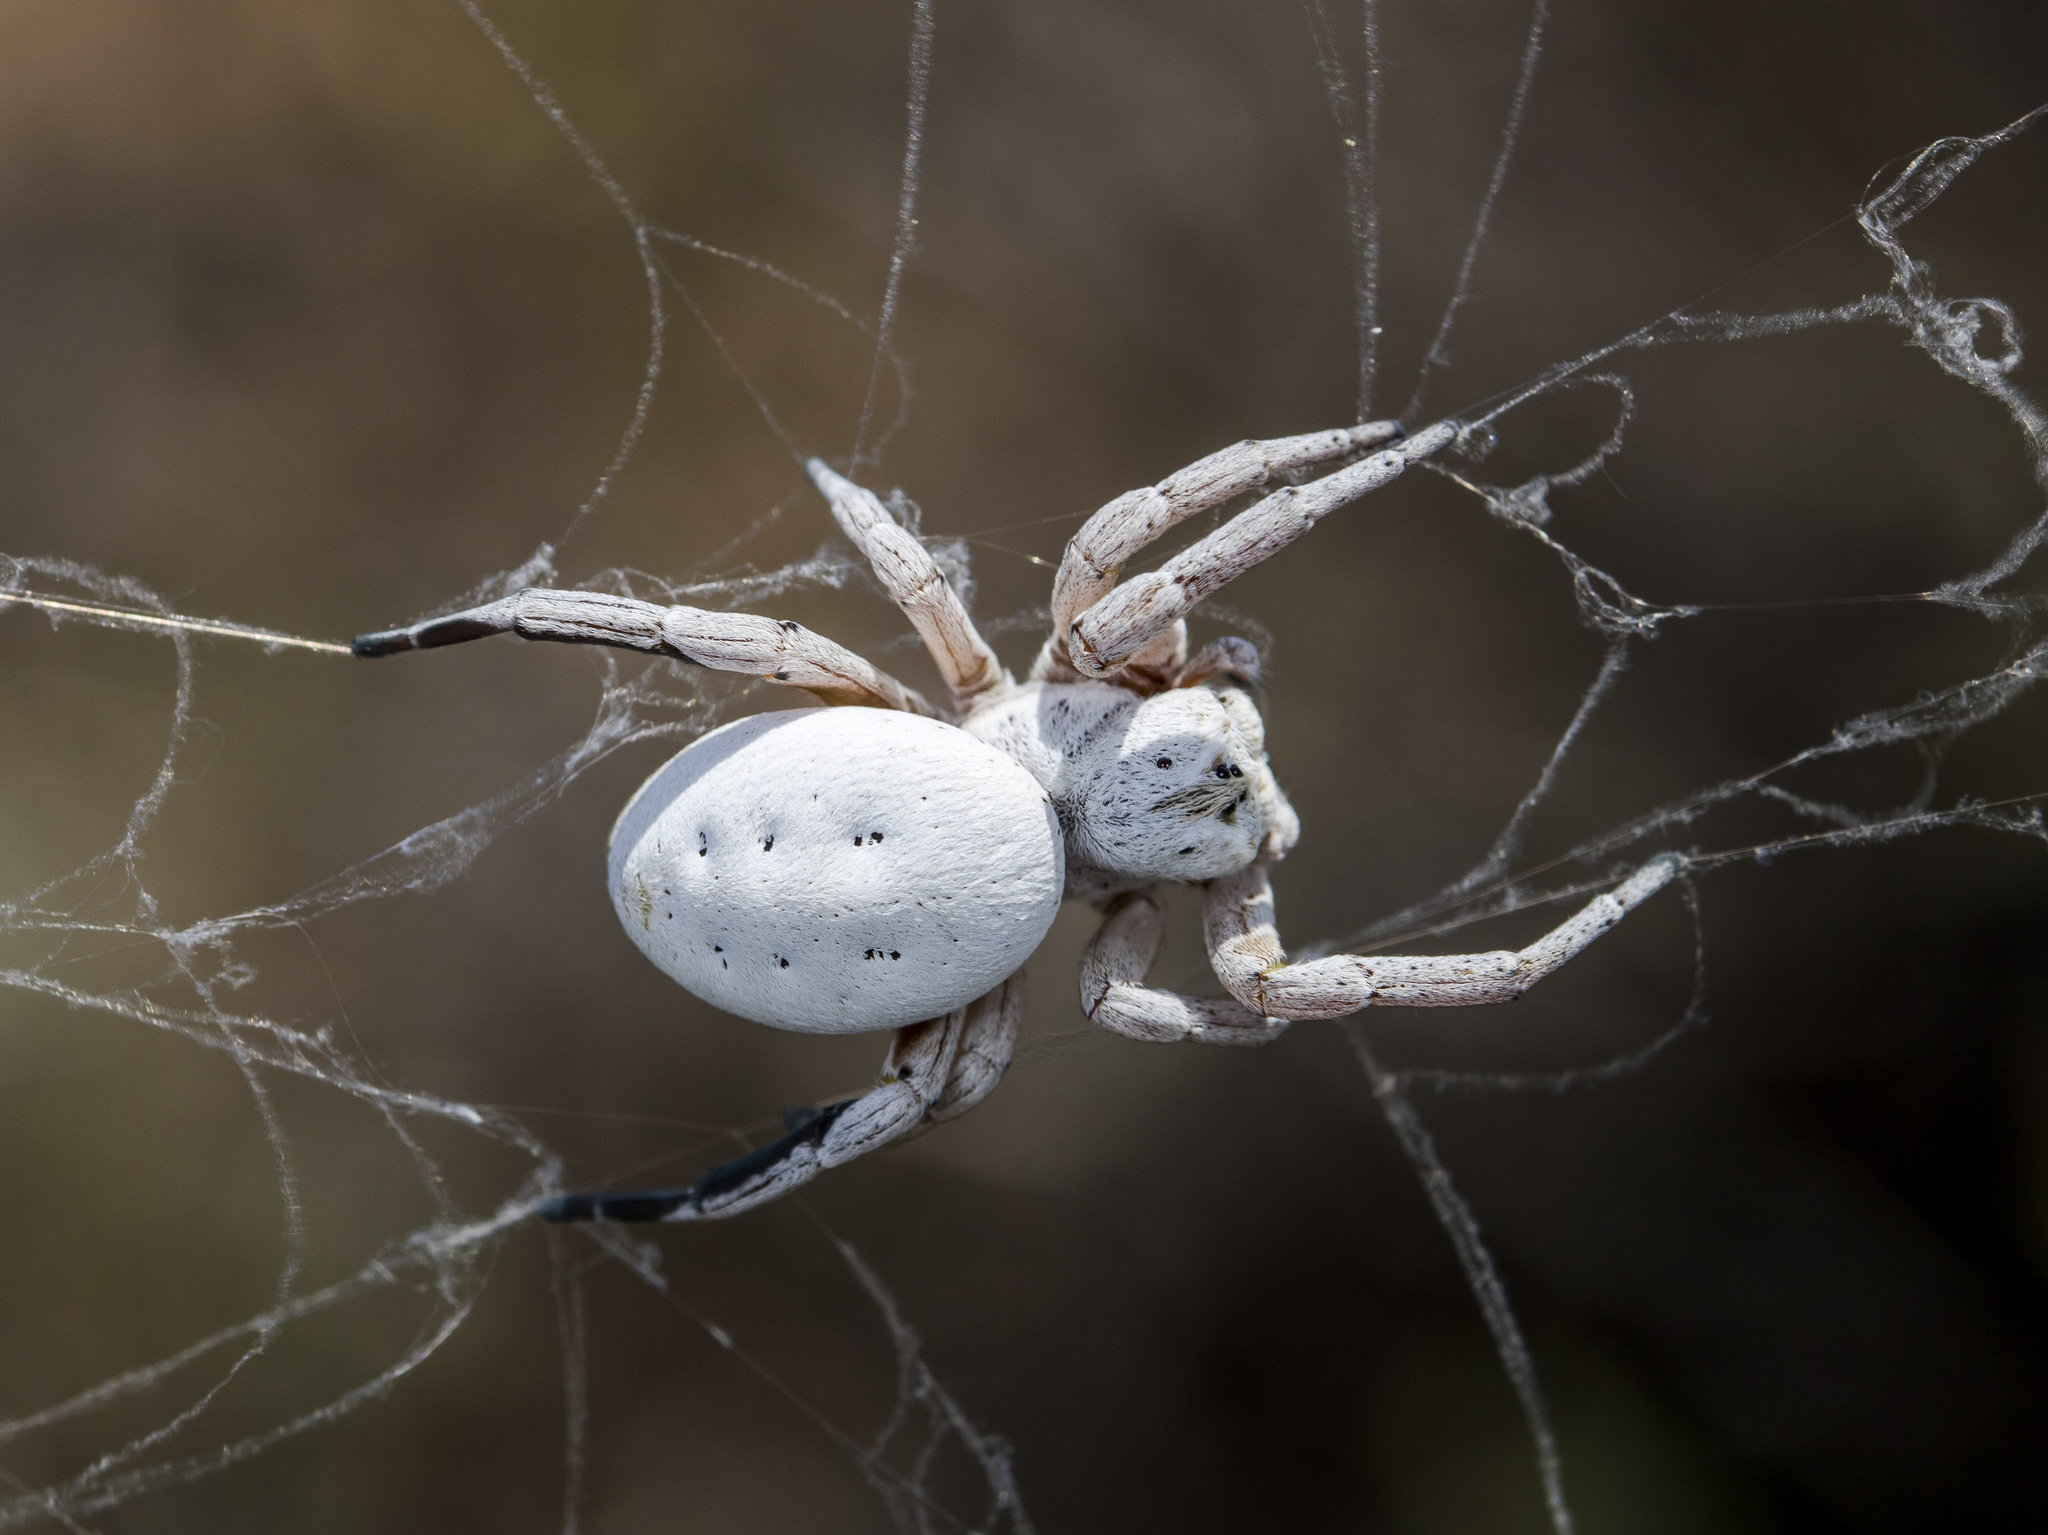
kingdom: Animalia
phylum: Arthropoda
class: Arachnida
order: Araneae
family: Eresidae
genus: Stegodyphus
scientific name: Stegodyphus lineatus
